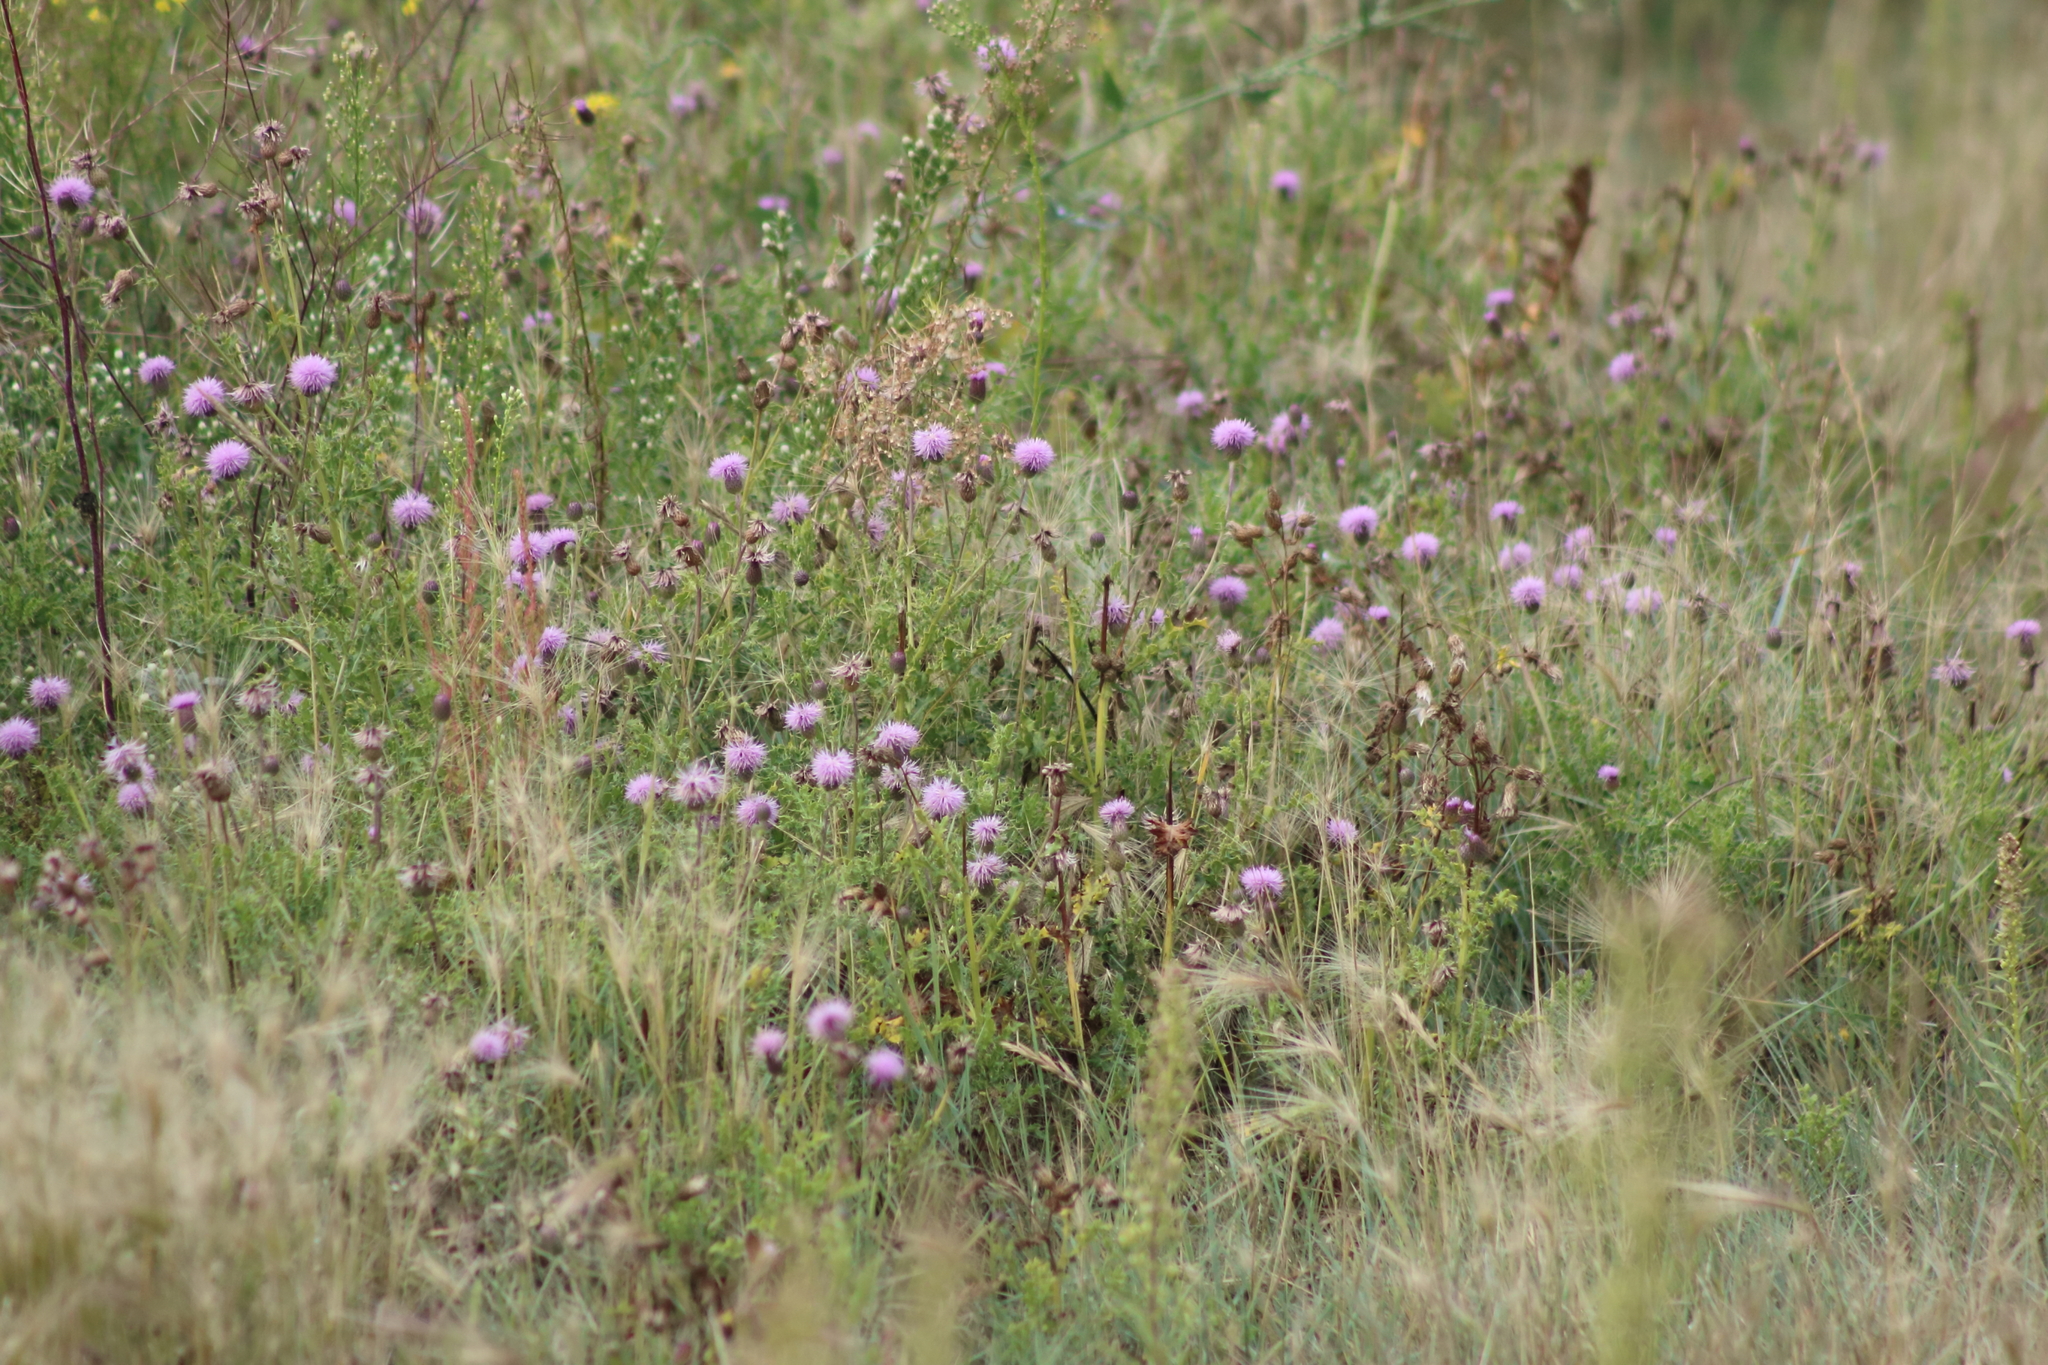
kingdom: Plantae
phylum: Tracheophyta
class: Magnoliopsida
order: Asterales
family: Asteraceae
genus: Cirsium
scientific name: Cirsium arvense
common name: Creeping thistle
